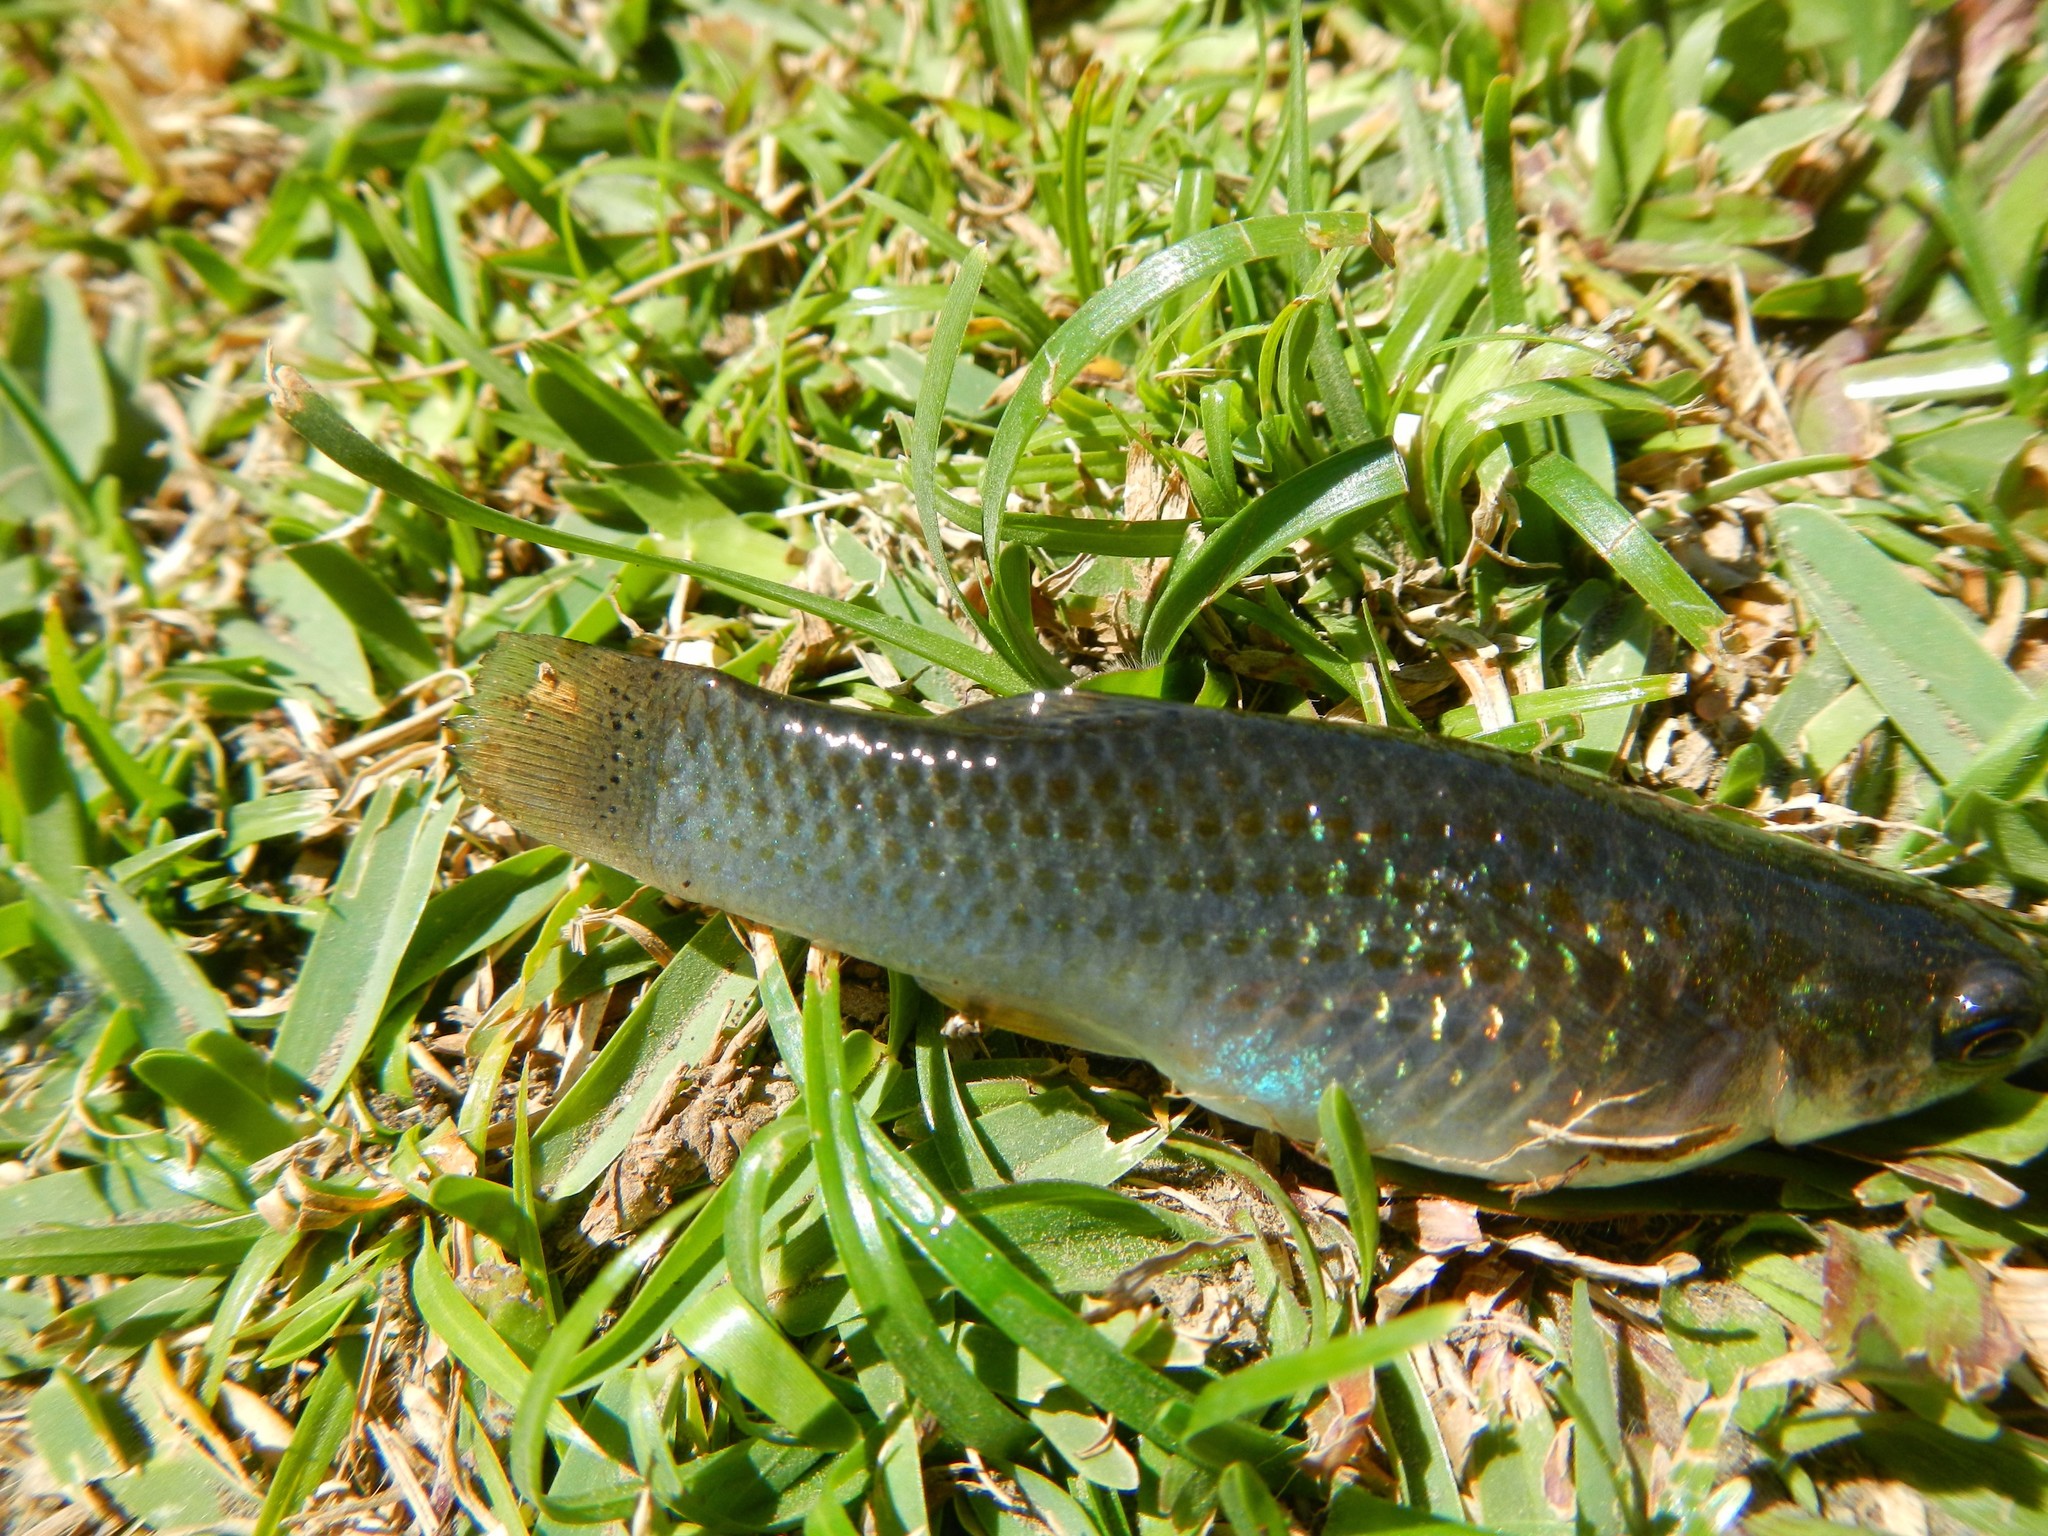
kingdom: Animalia
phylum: Chordata
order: Cyprinodontiformes
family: Poeciliidae
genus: Poecilia
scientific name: Poecilia mexicana
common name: Shortfin molly
